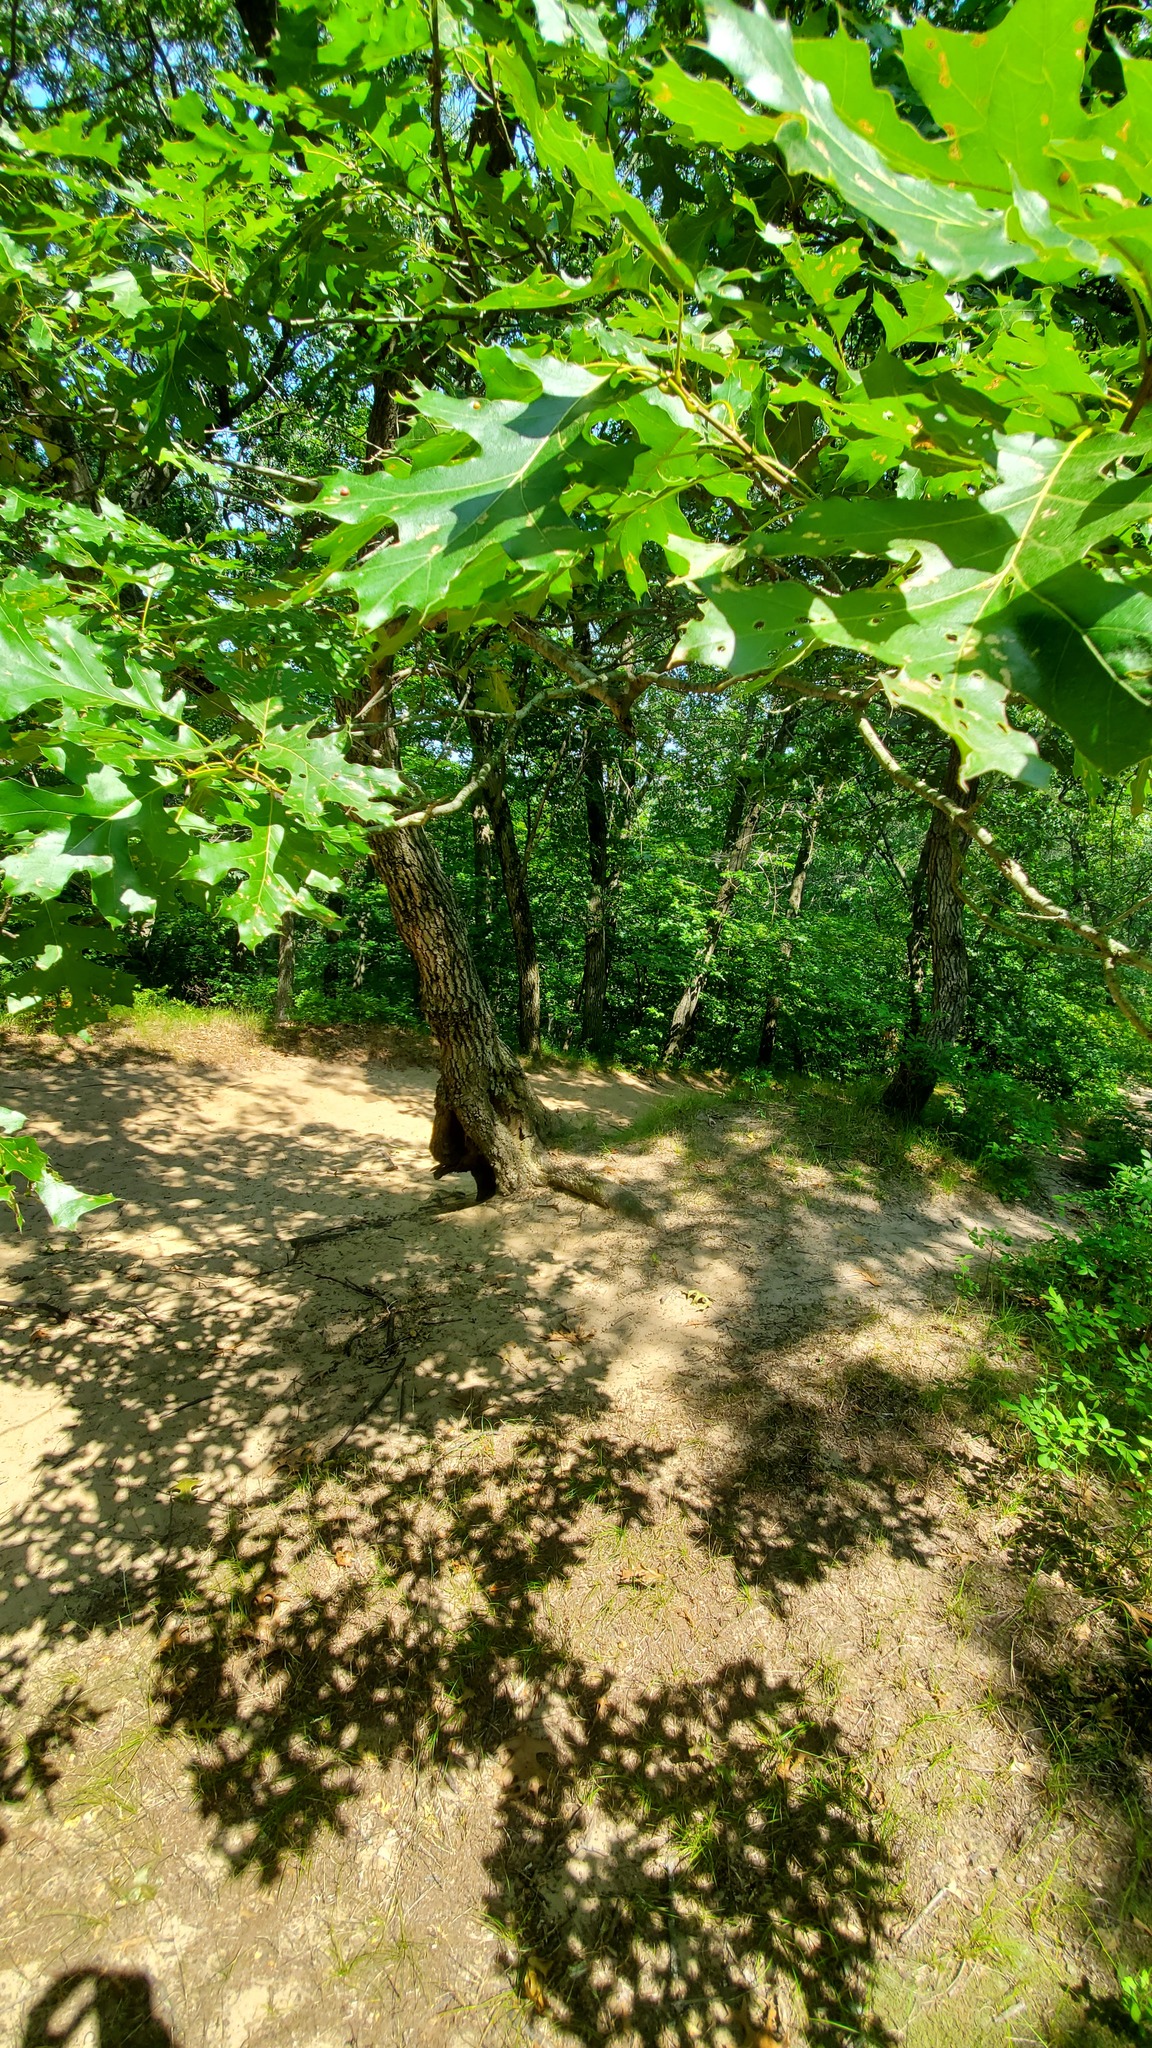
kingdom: Plantae
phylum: Tracheophyta
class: Magnoliopsida
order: Fagales
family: Fagaceae
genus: Quercus
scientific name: Quercus velutina
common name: Black oak
